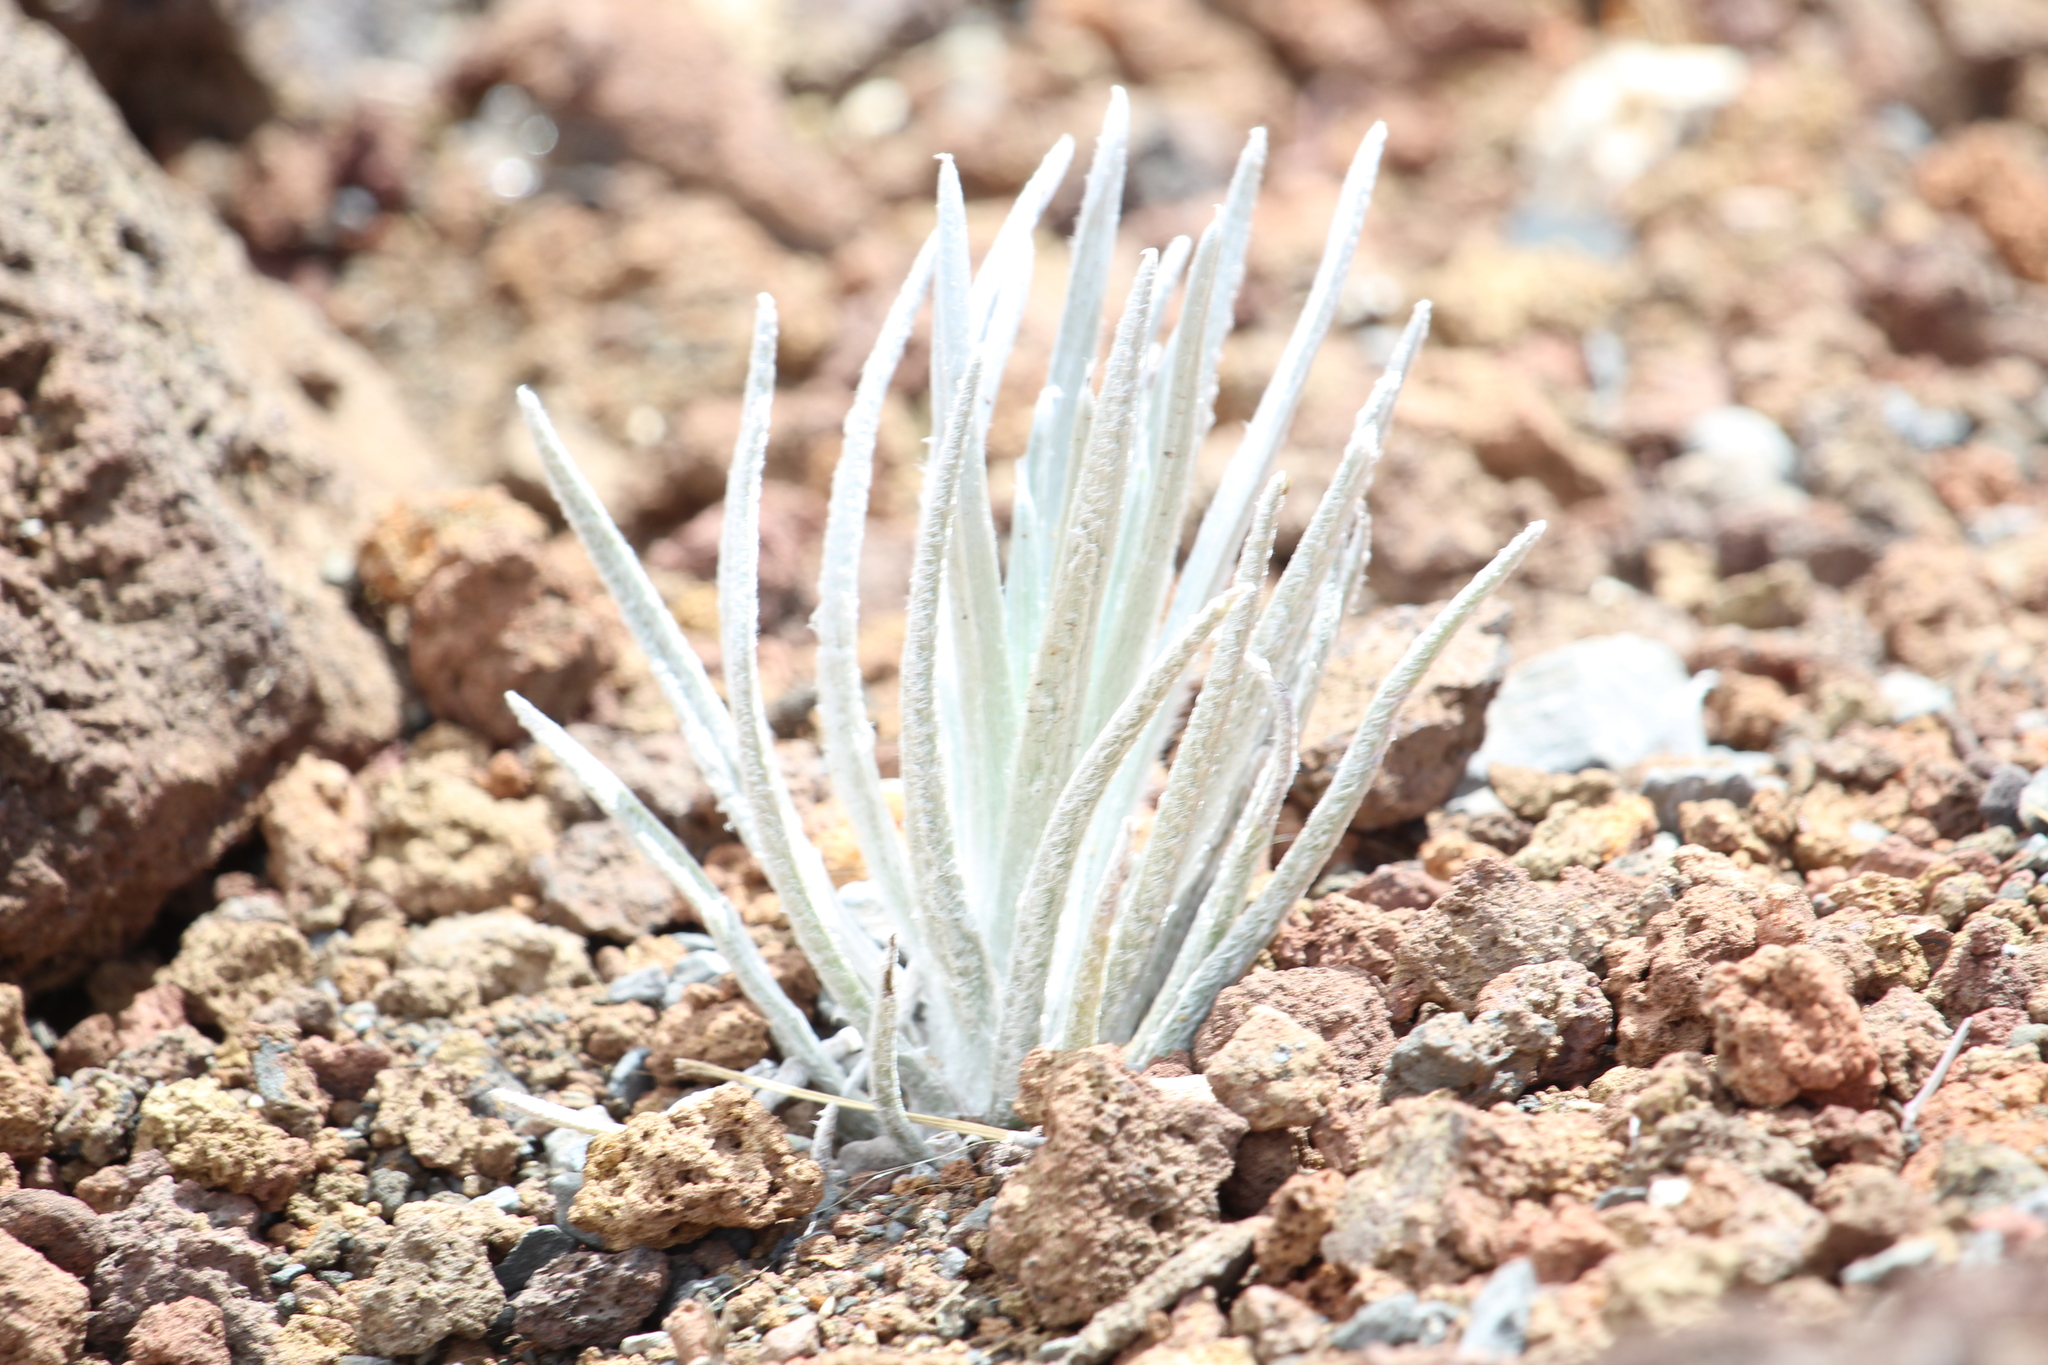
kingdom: Plantae
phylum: Tracheophyta
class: Magnoliopsida
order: Asterales
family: Asteraceae
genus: Argyroxiphium
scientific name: Argyroxiphium sandwicense
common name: Silversword
